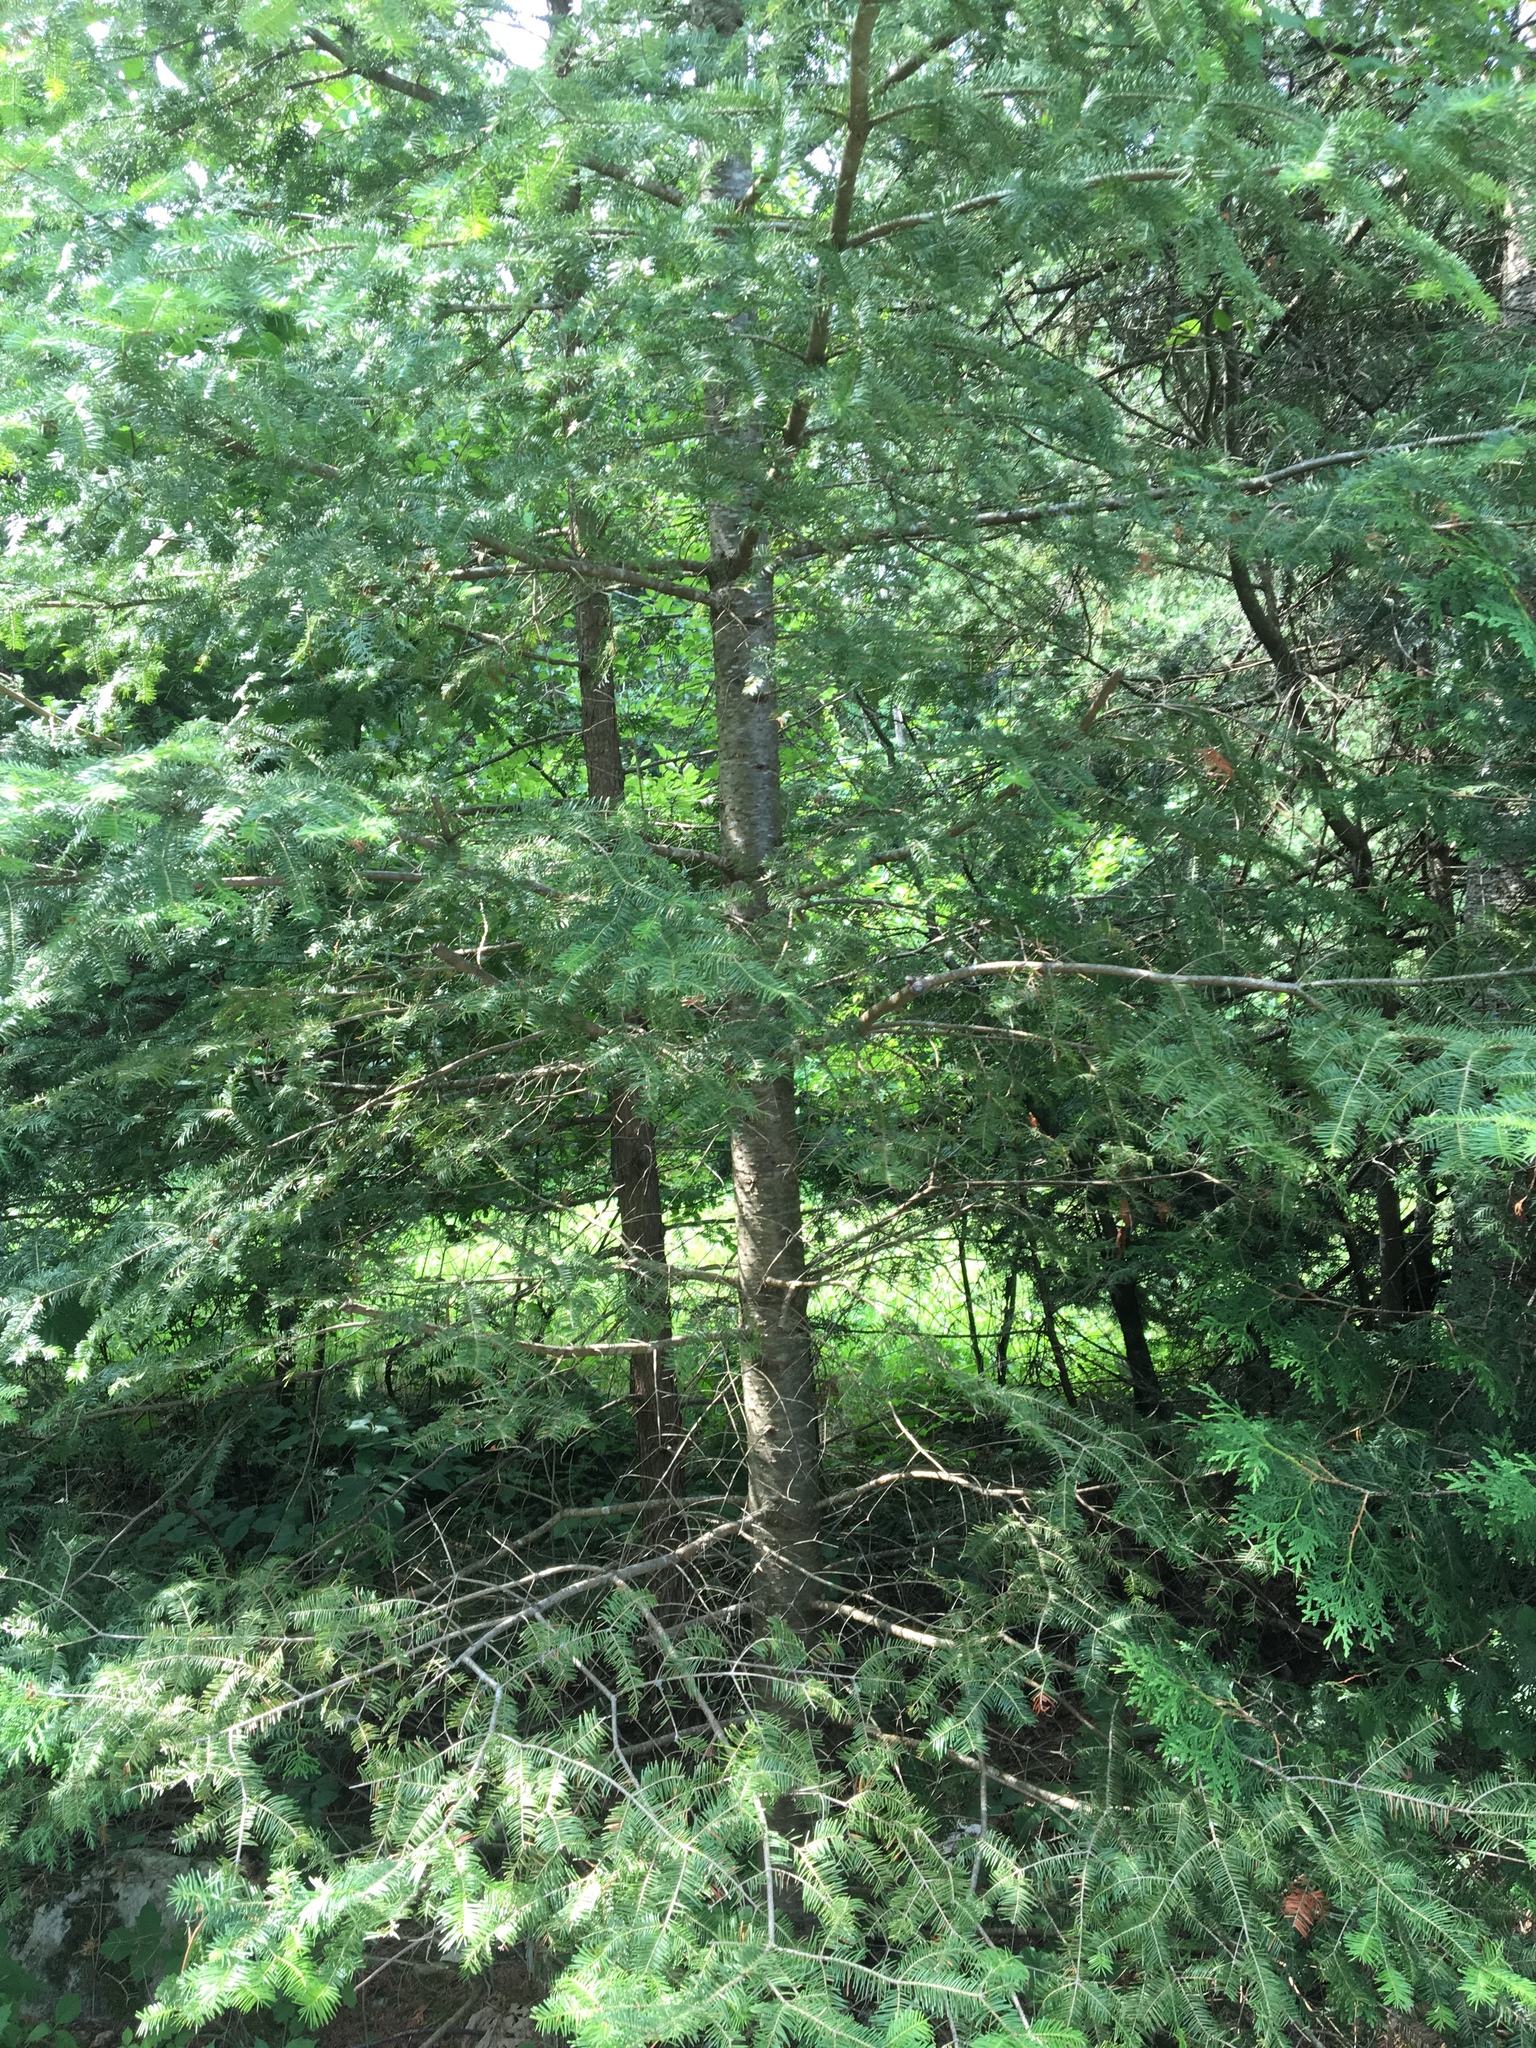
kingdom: Plantae
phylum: Tracheophyta
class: Pinopsida
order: Pinales
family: Pinaceae
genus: Abies
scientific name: Abies balsamea
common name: Balsam fir
